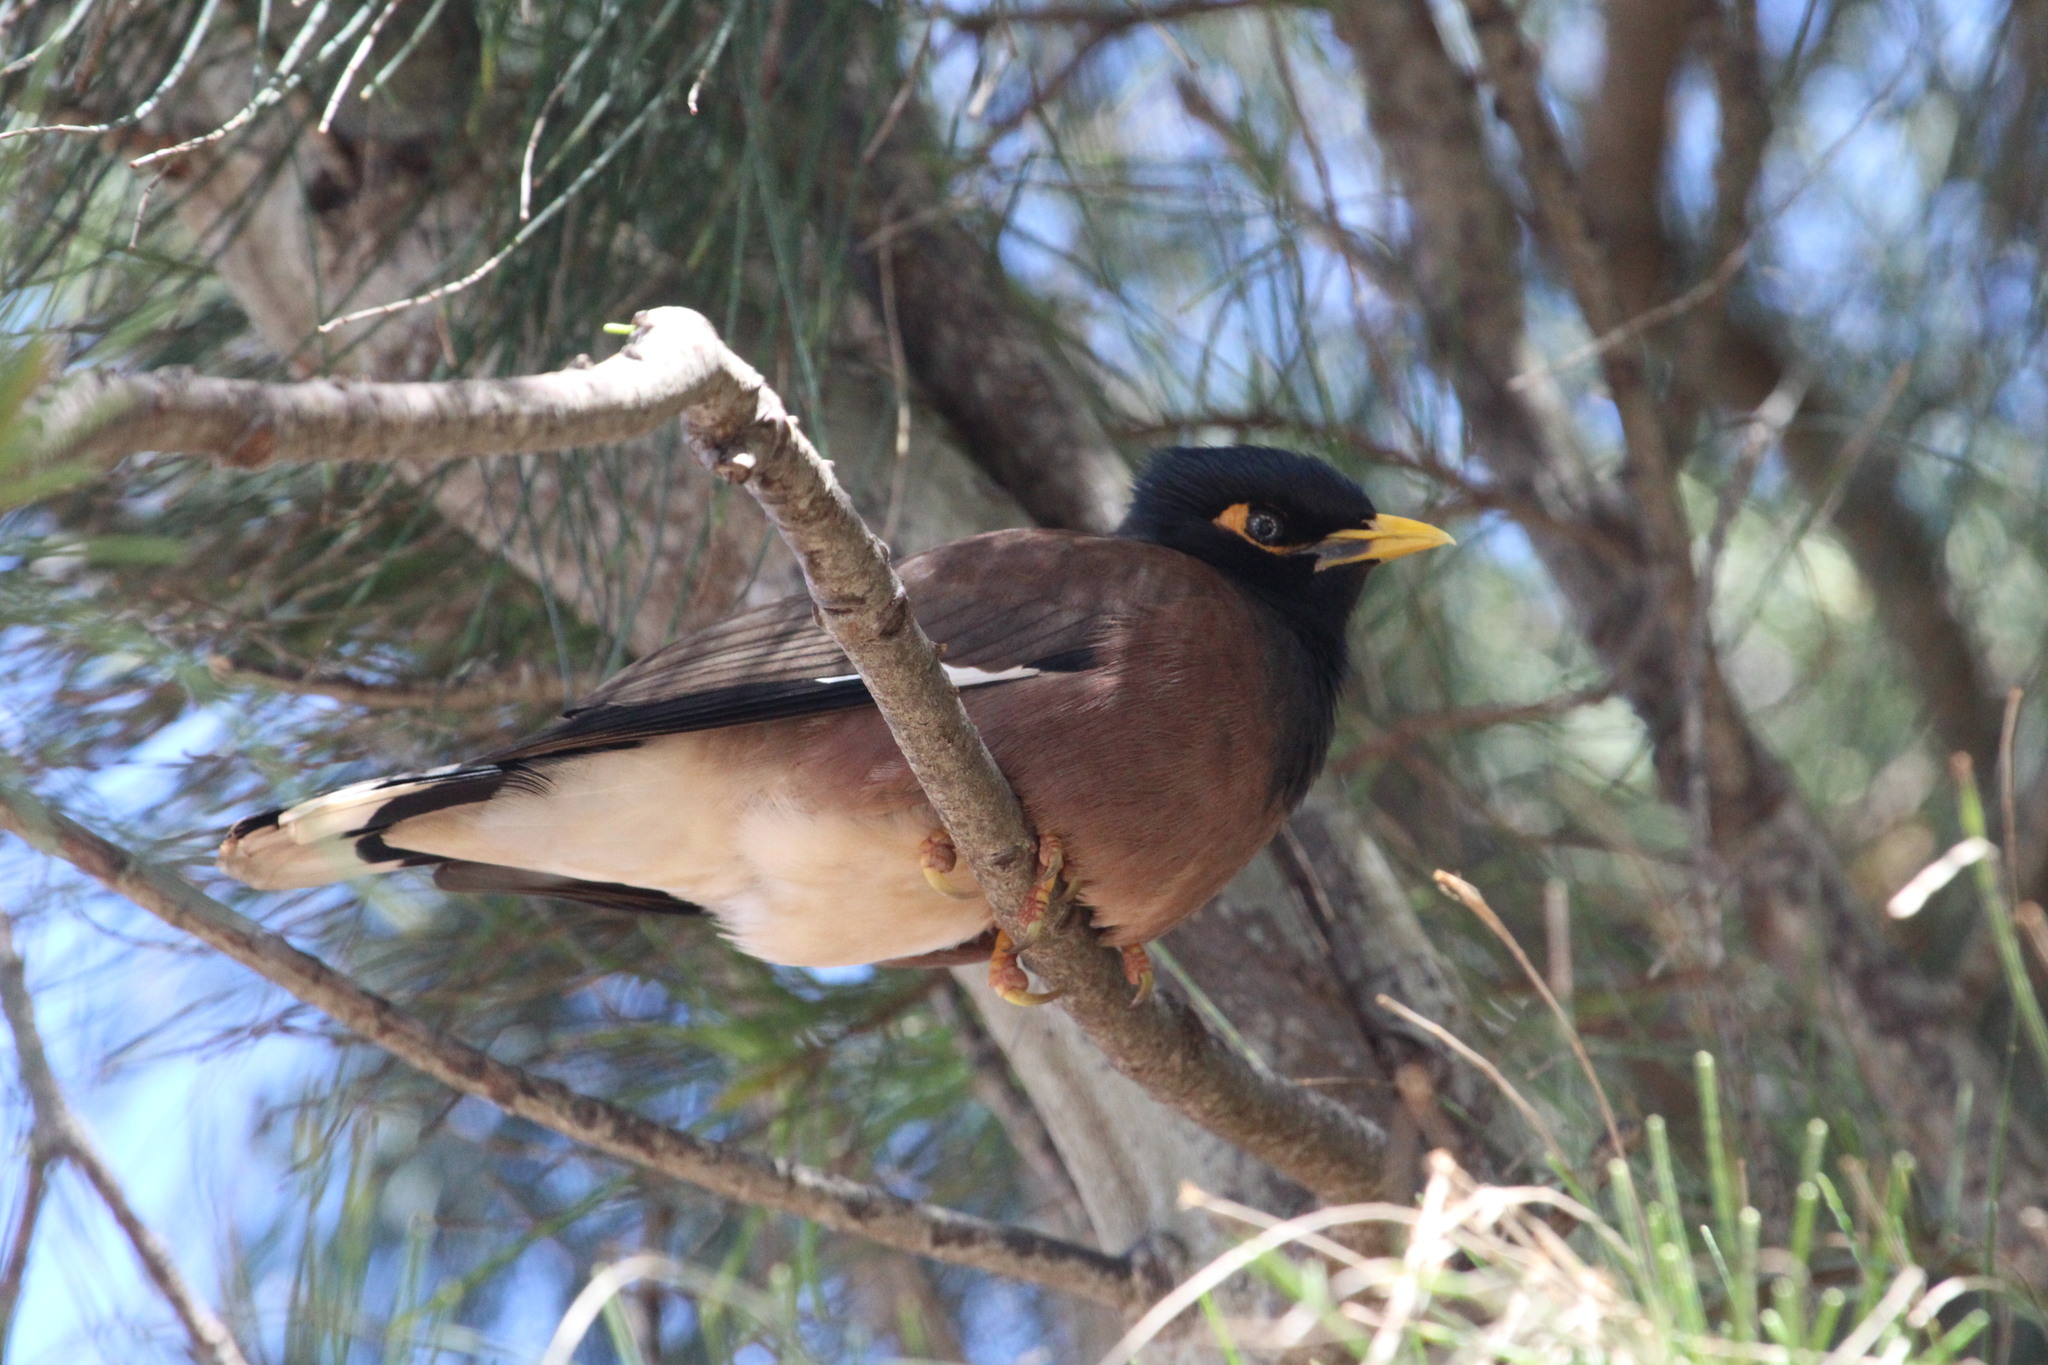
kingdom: Animalia
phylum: Chordata
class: Aves
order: Passeriformes
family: Sturnidae
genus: Acridotheres
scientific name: Acridotheres tristis
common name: Common myna
